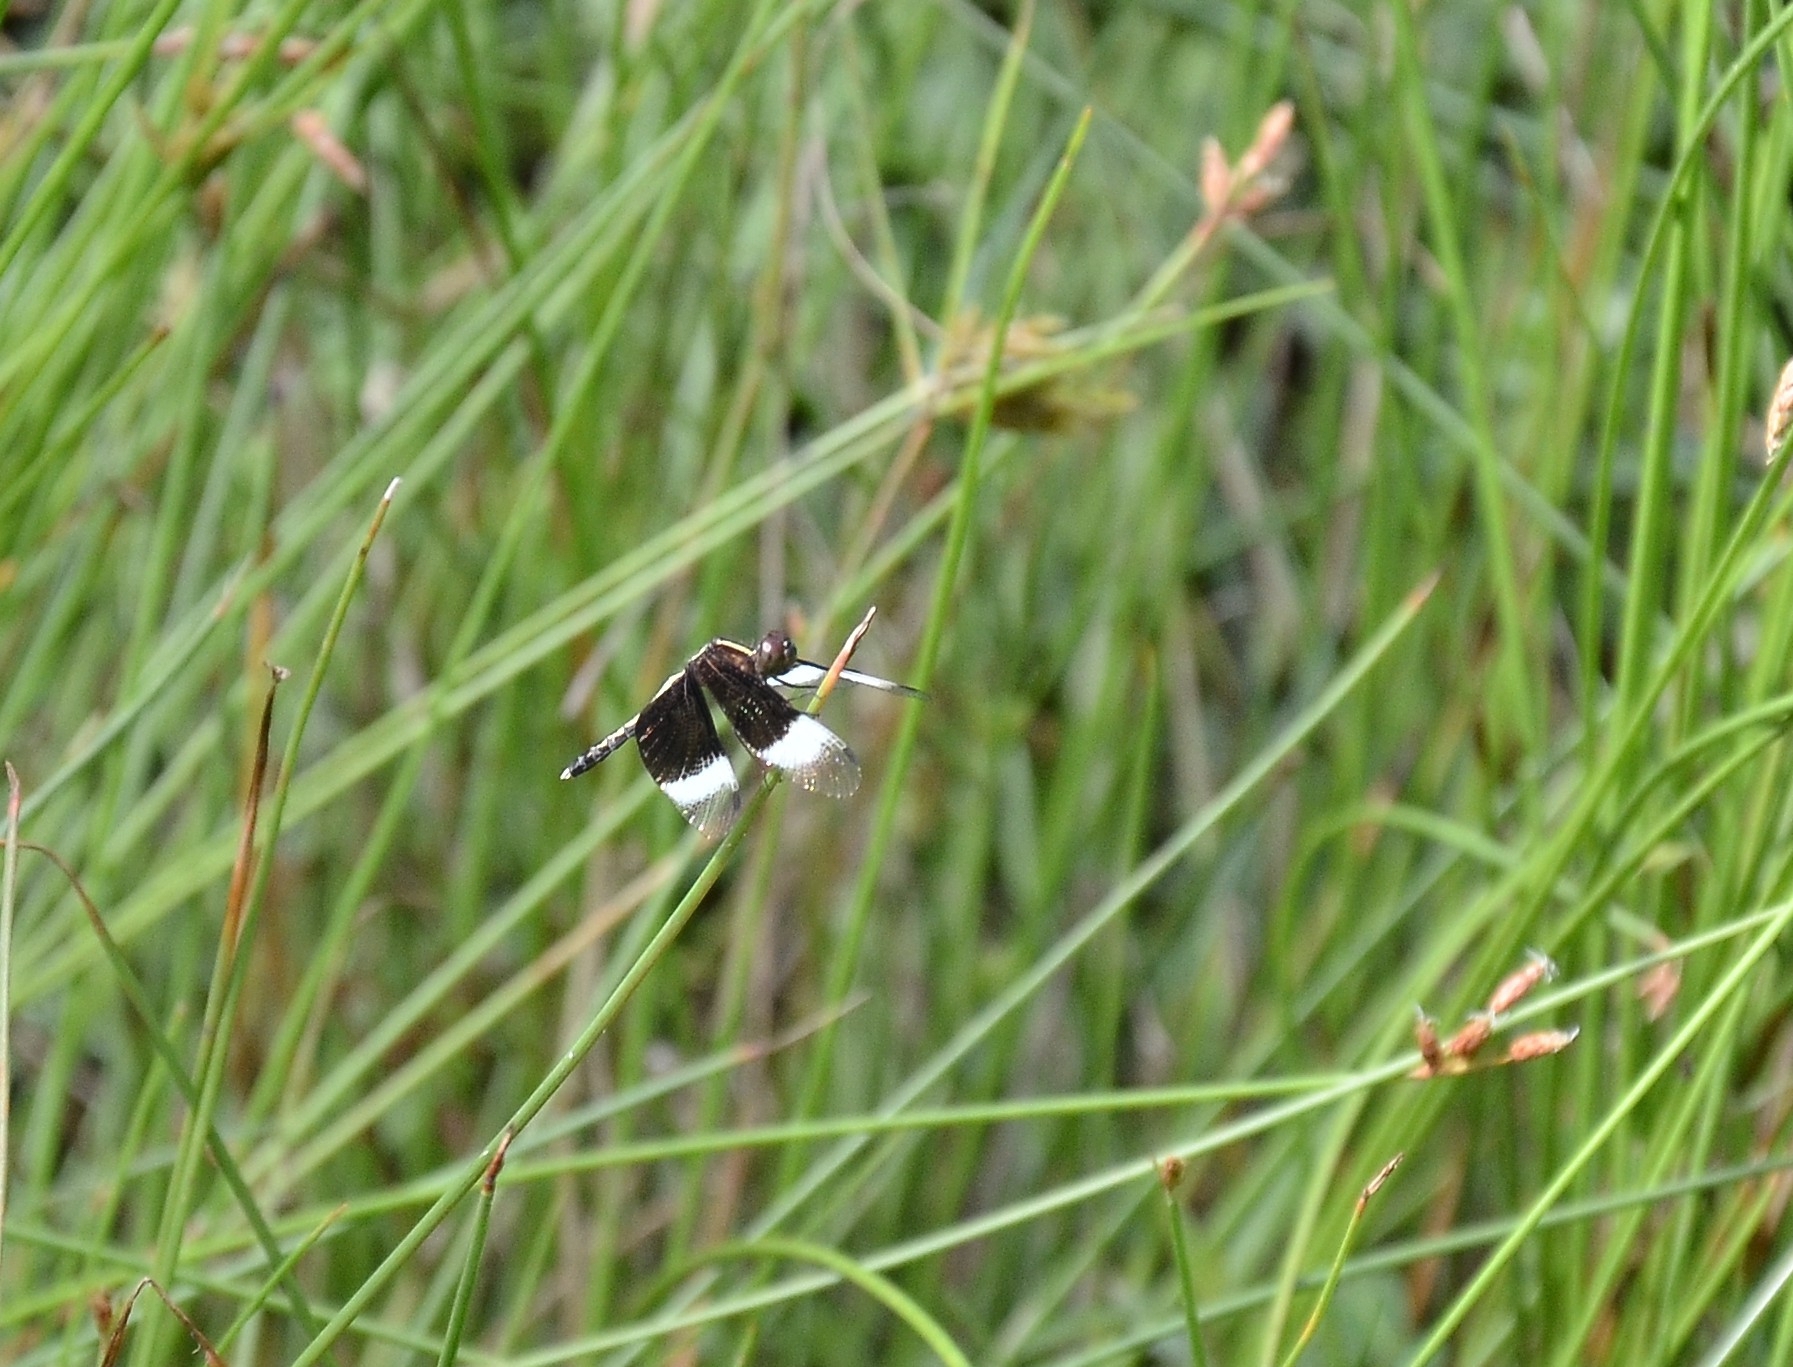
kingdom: Animalia
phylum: Arthropoda
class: Insecta
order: Odonata
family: Libellulidae
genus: Neurothemis
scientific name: Neurothemis tullia
